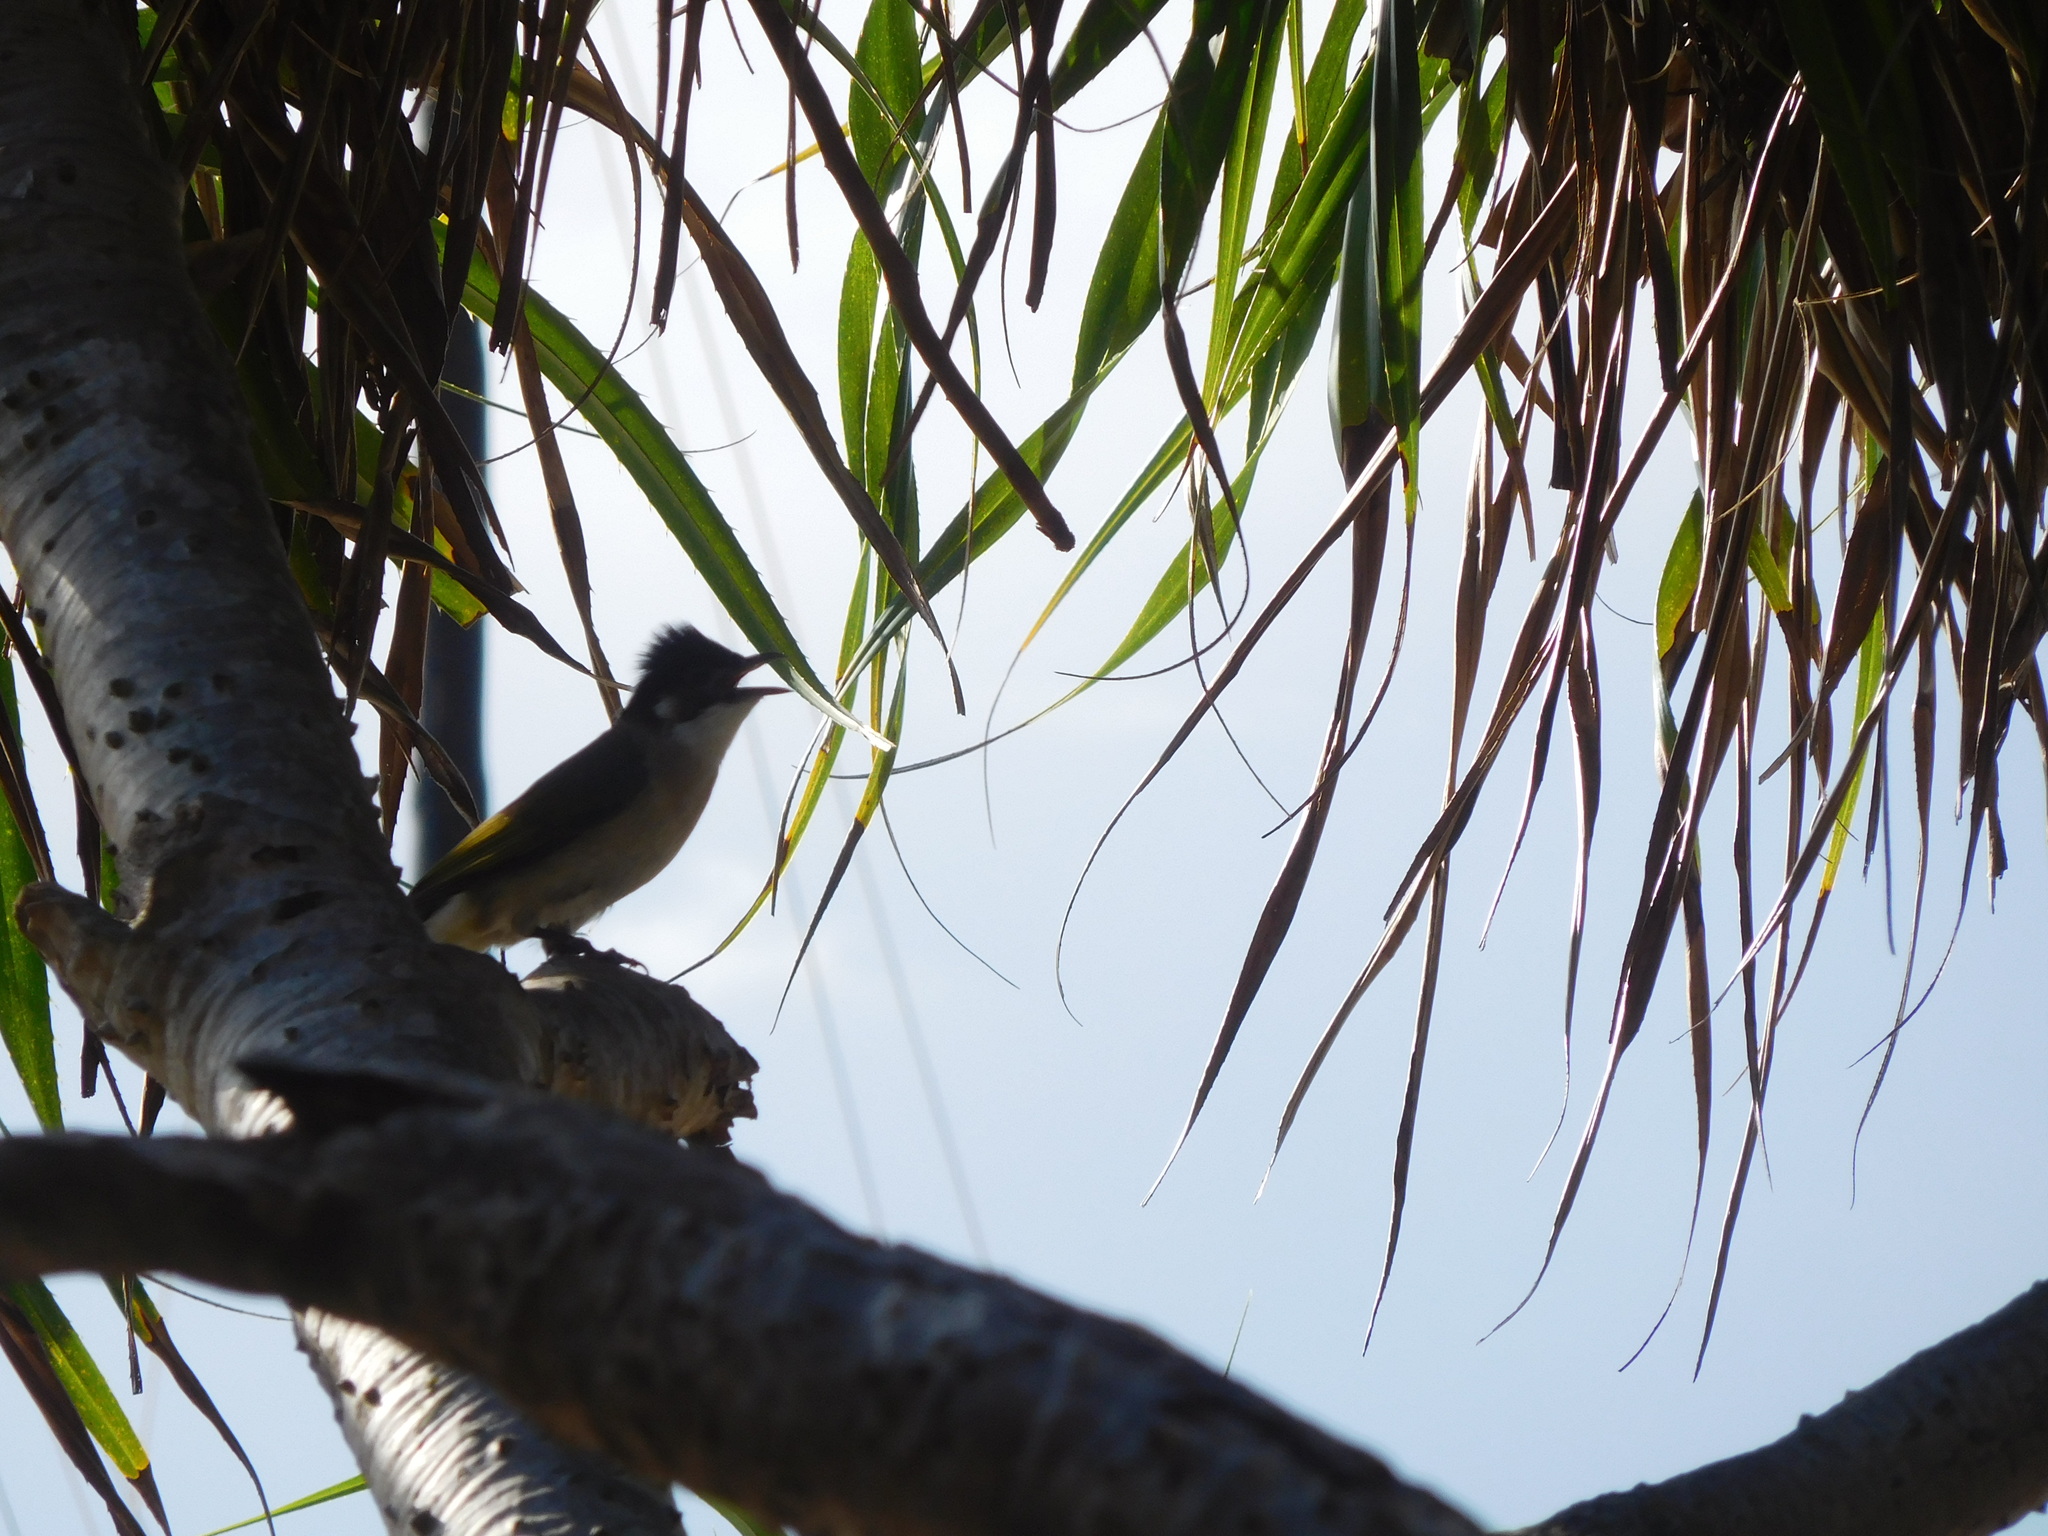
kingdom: Animalia
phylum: Chordata
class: Aves
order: Passeriformes
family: Pycnonotidae
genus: Pycnonotus
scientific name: Pycnonotus sinensis
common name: Light-vented bulbul
